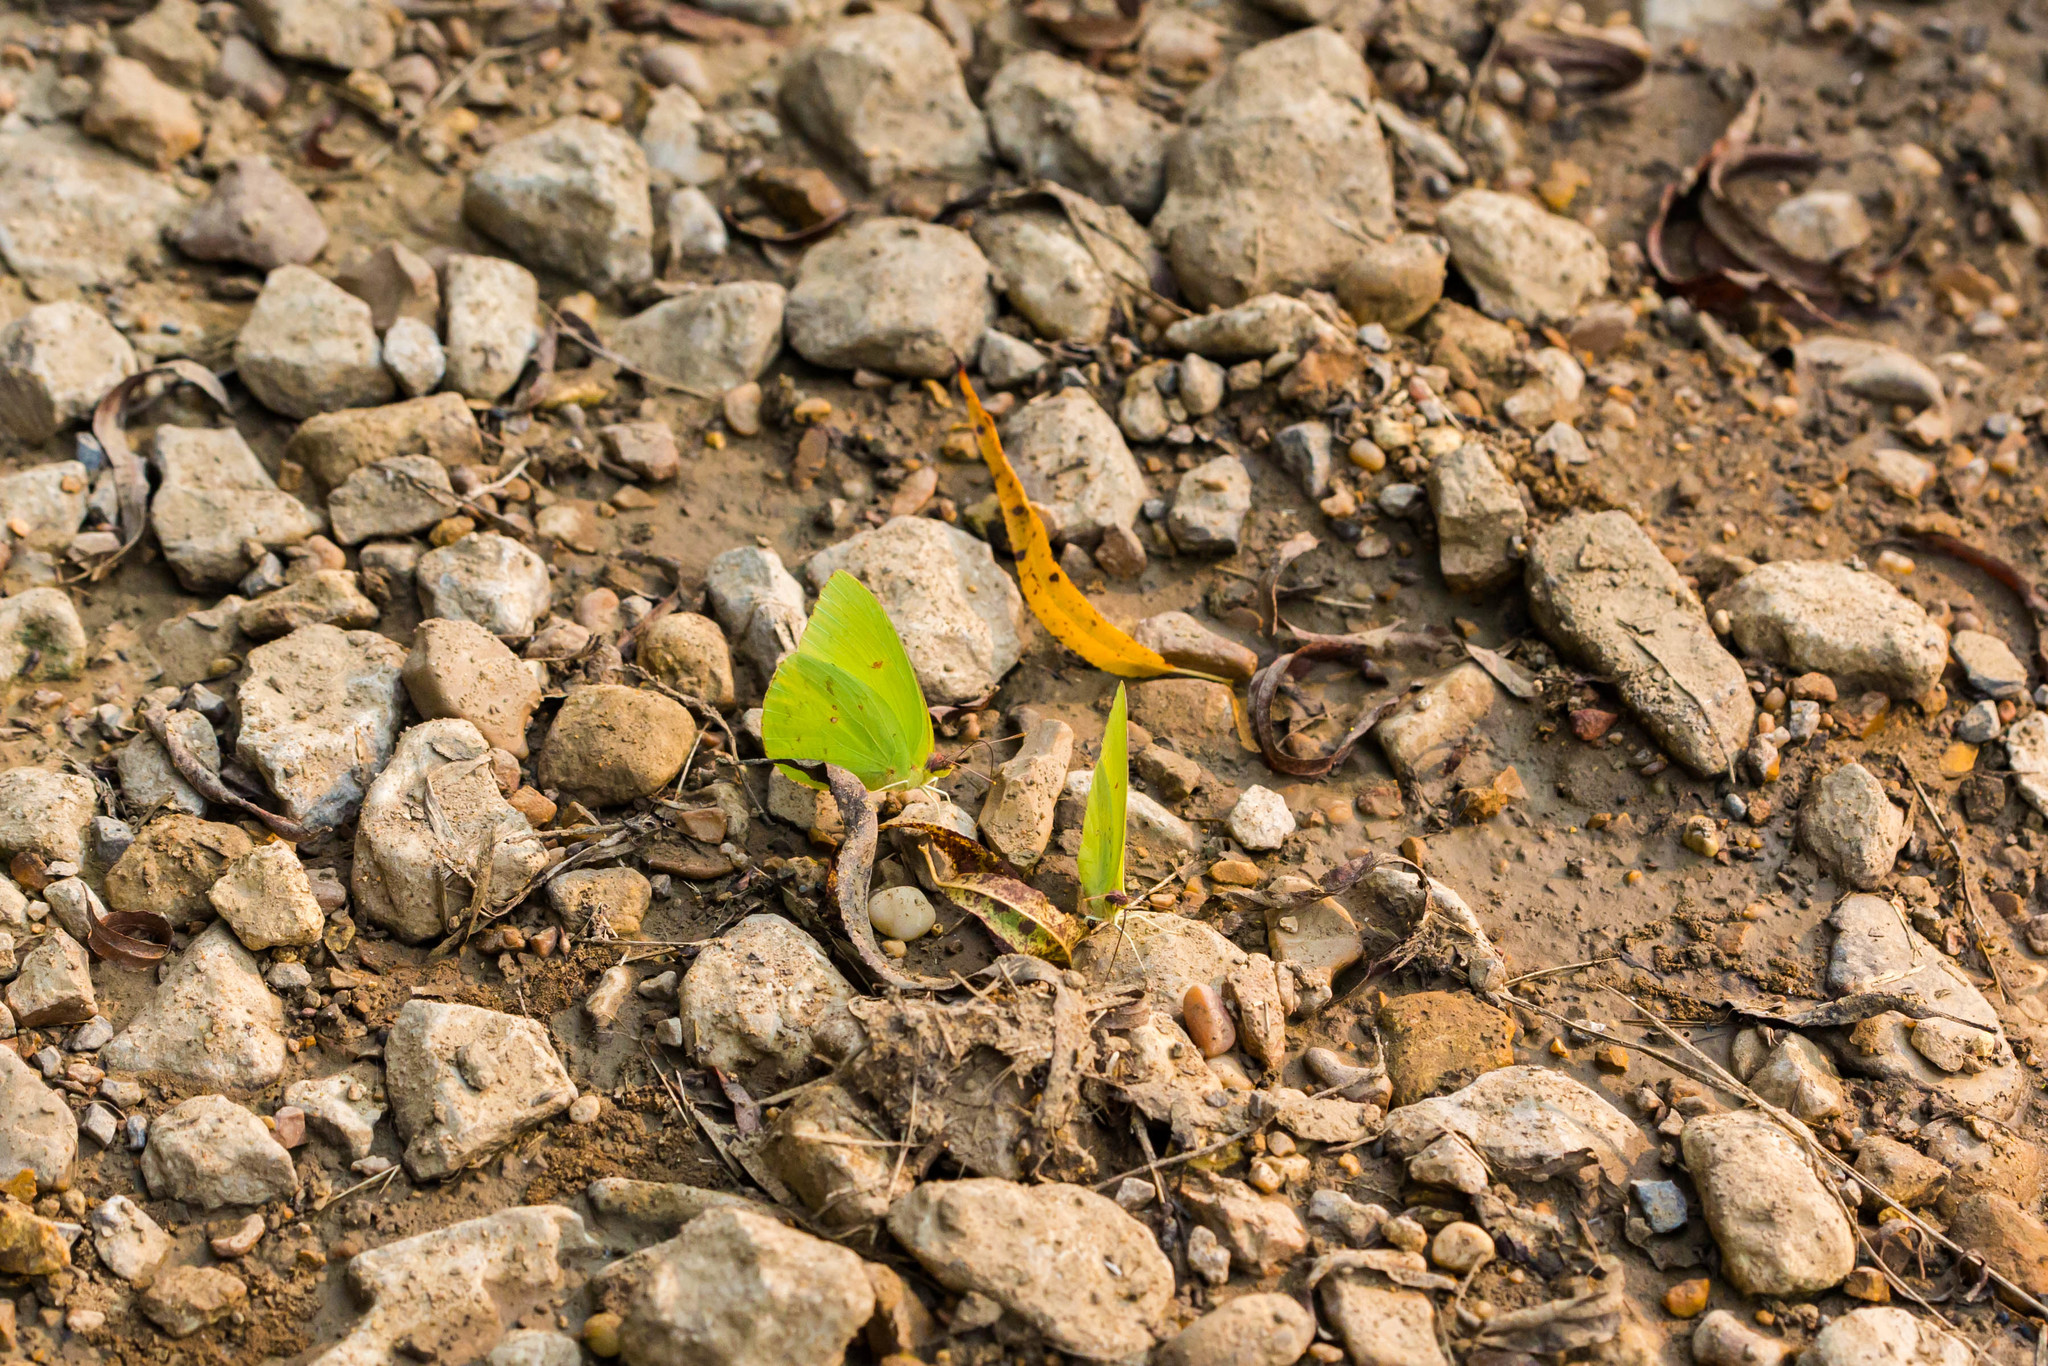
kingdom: Animalia
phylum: Arthropoda
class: Insecta
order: Lepidoptera
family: Pieridae
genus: Phoebis
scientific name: Phoebis sennae
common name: Cloudless sulphur
